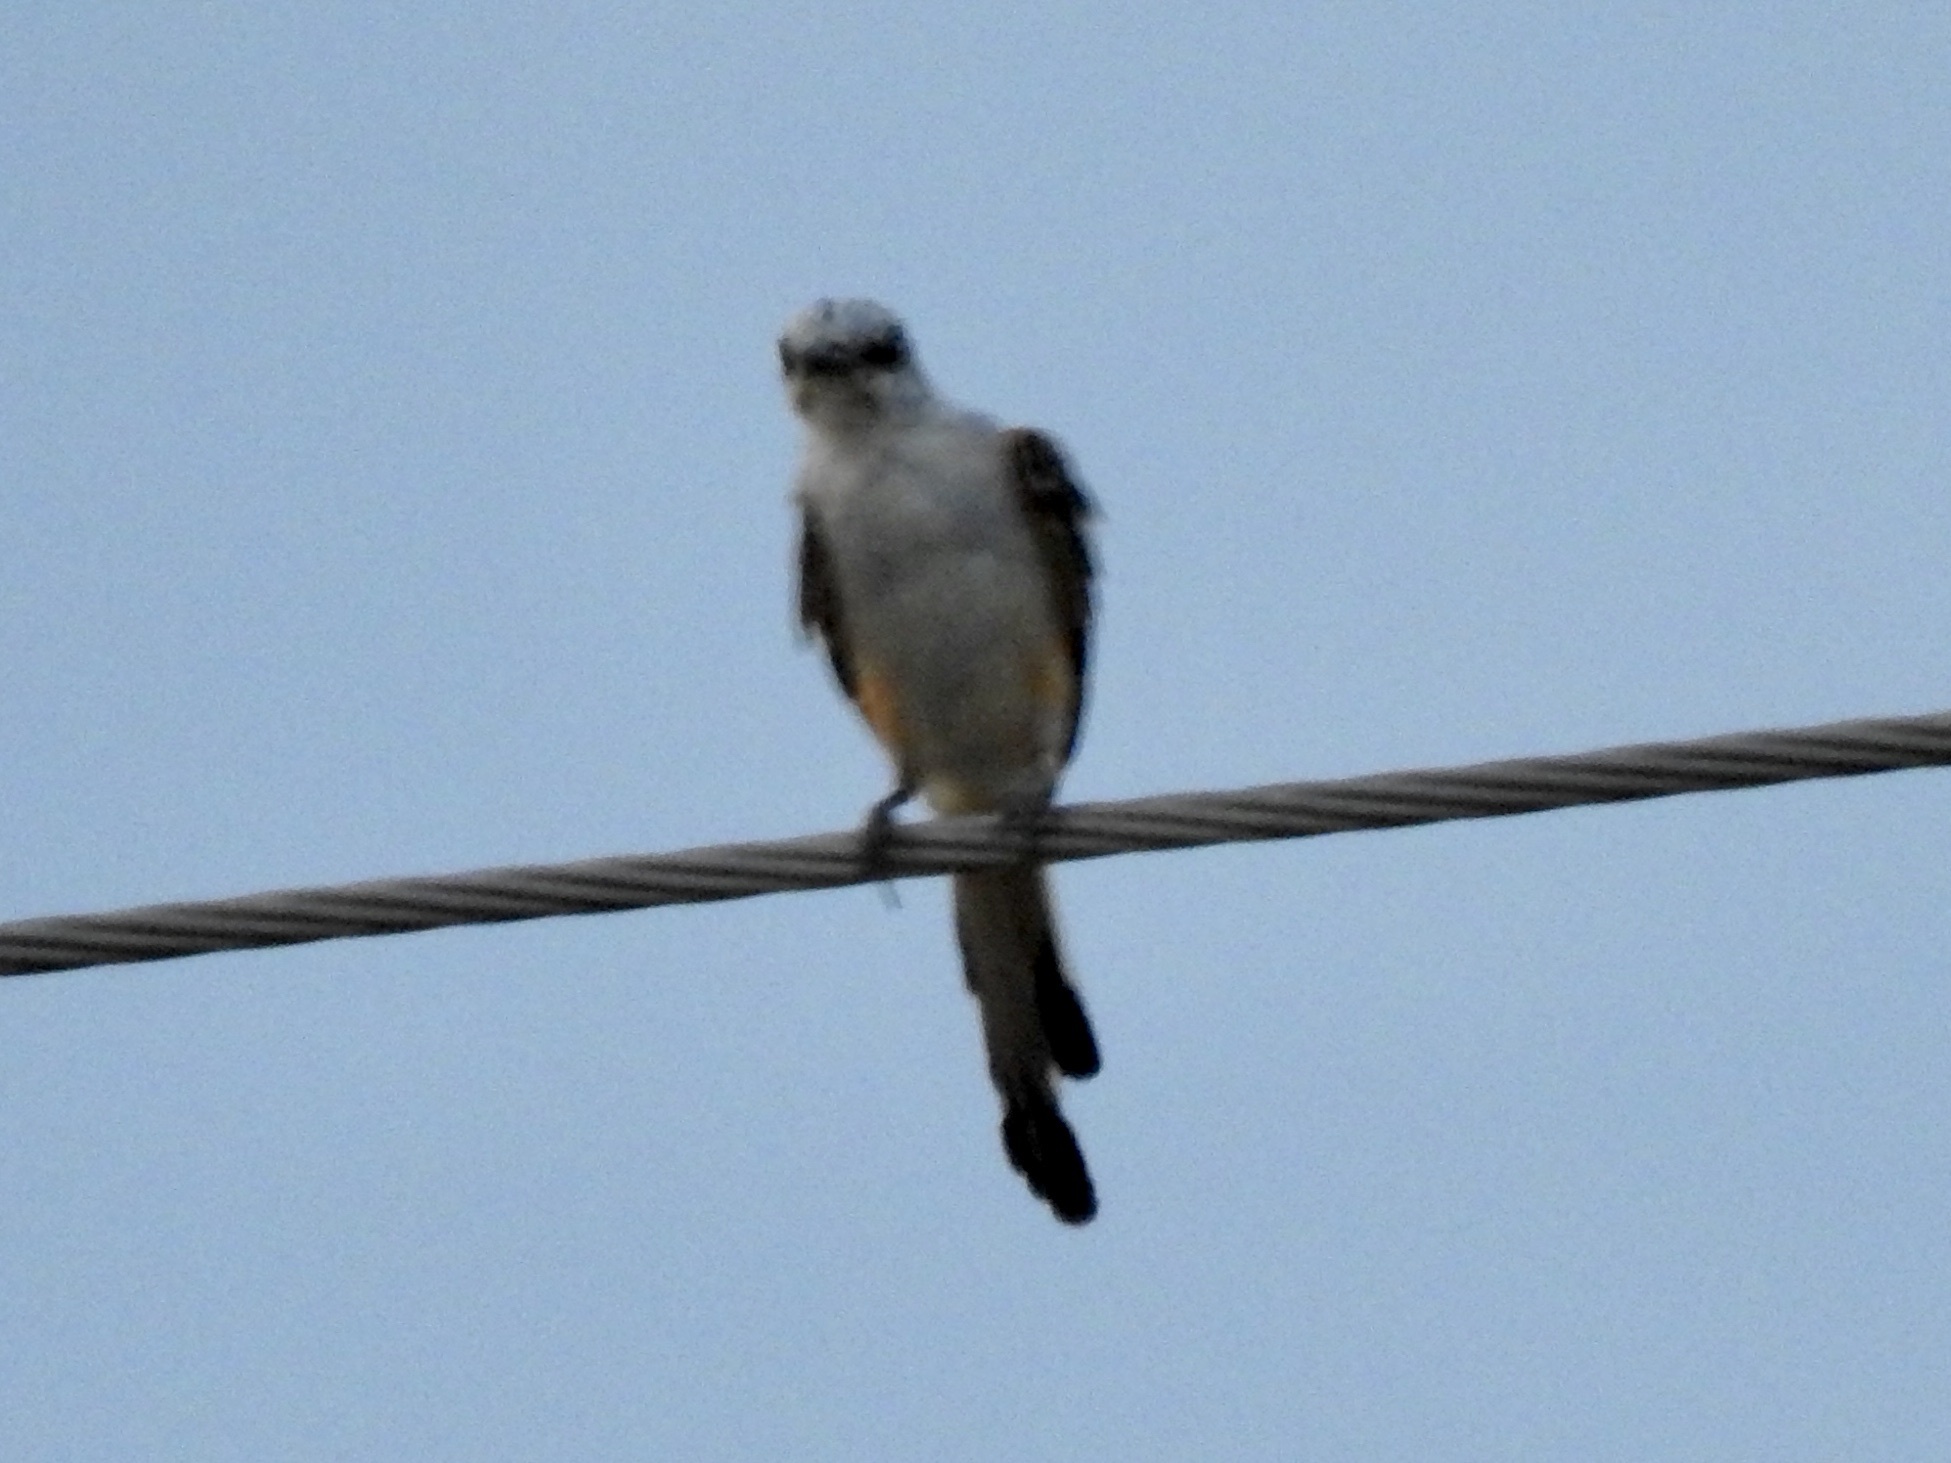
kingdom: Animalia
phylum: Chordata
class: Aves
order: Passeriformes
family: Tyrannidae
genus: Tyrannus
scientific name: Tyrannus forficatus
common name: Scissor-tailed flycatcher
